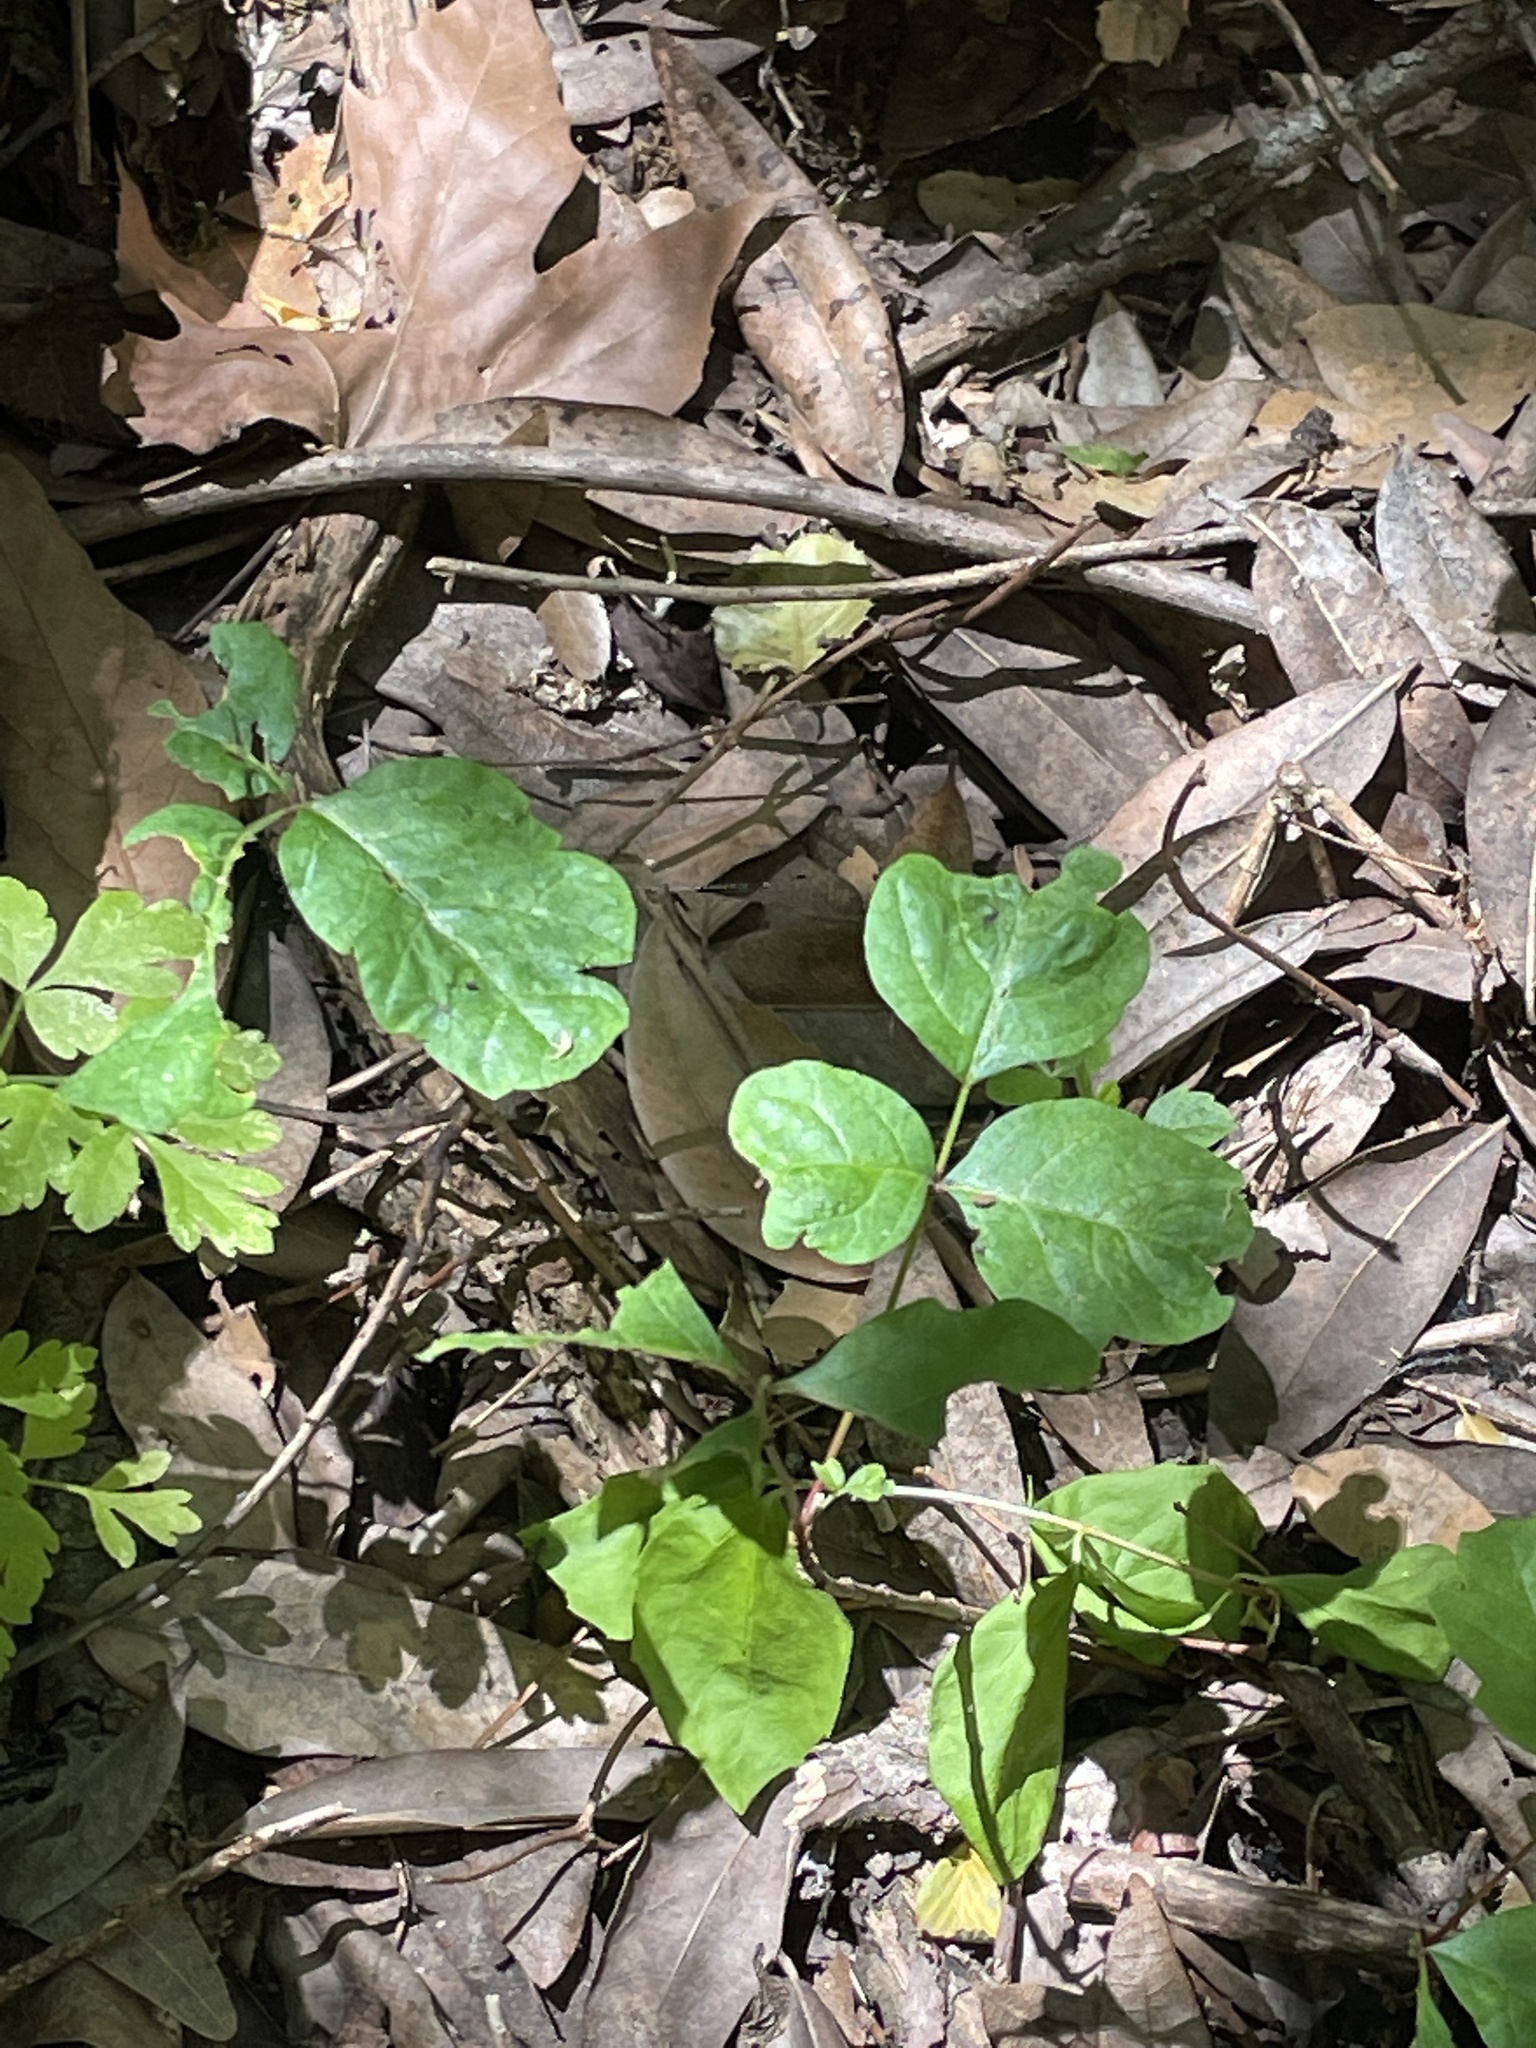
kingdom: Plantae
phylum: Tracheophyta
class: Magnoliopsida
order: Sapindales
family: Anacardiaceae
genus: Toxicodendron
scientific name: Toxicodendron diversilobum
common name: Pacific poison-oak
